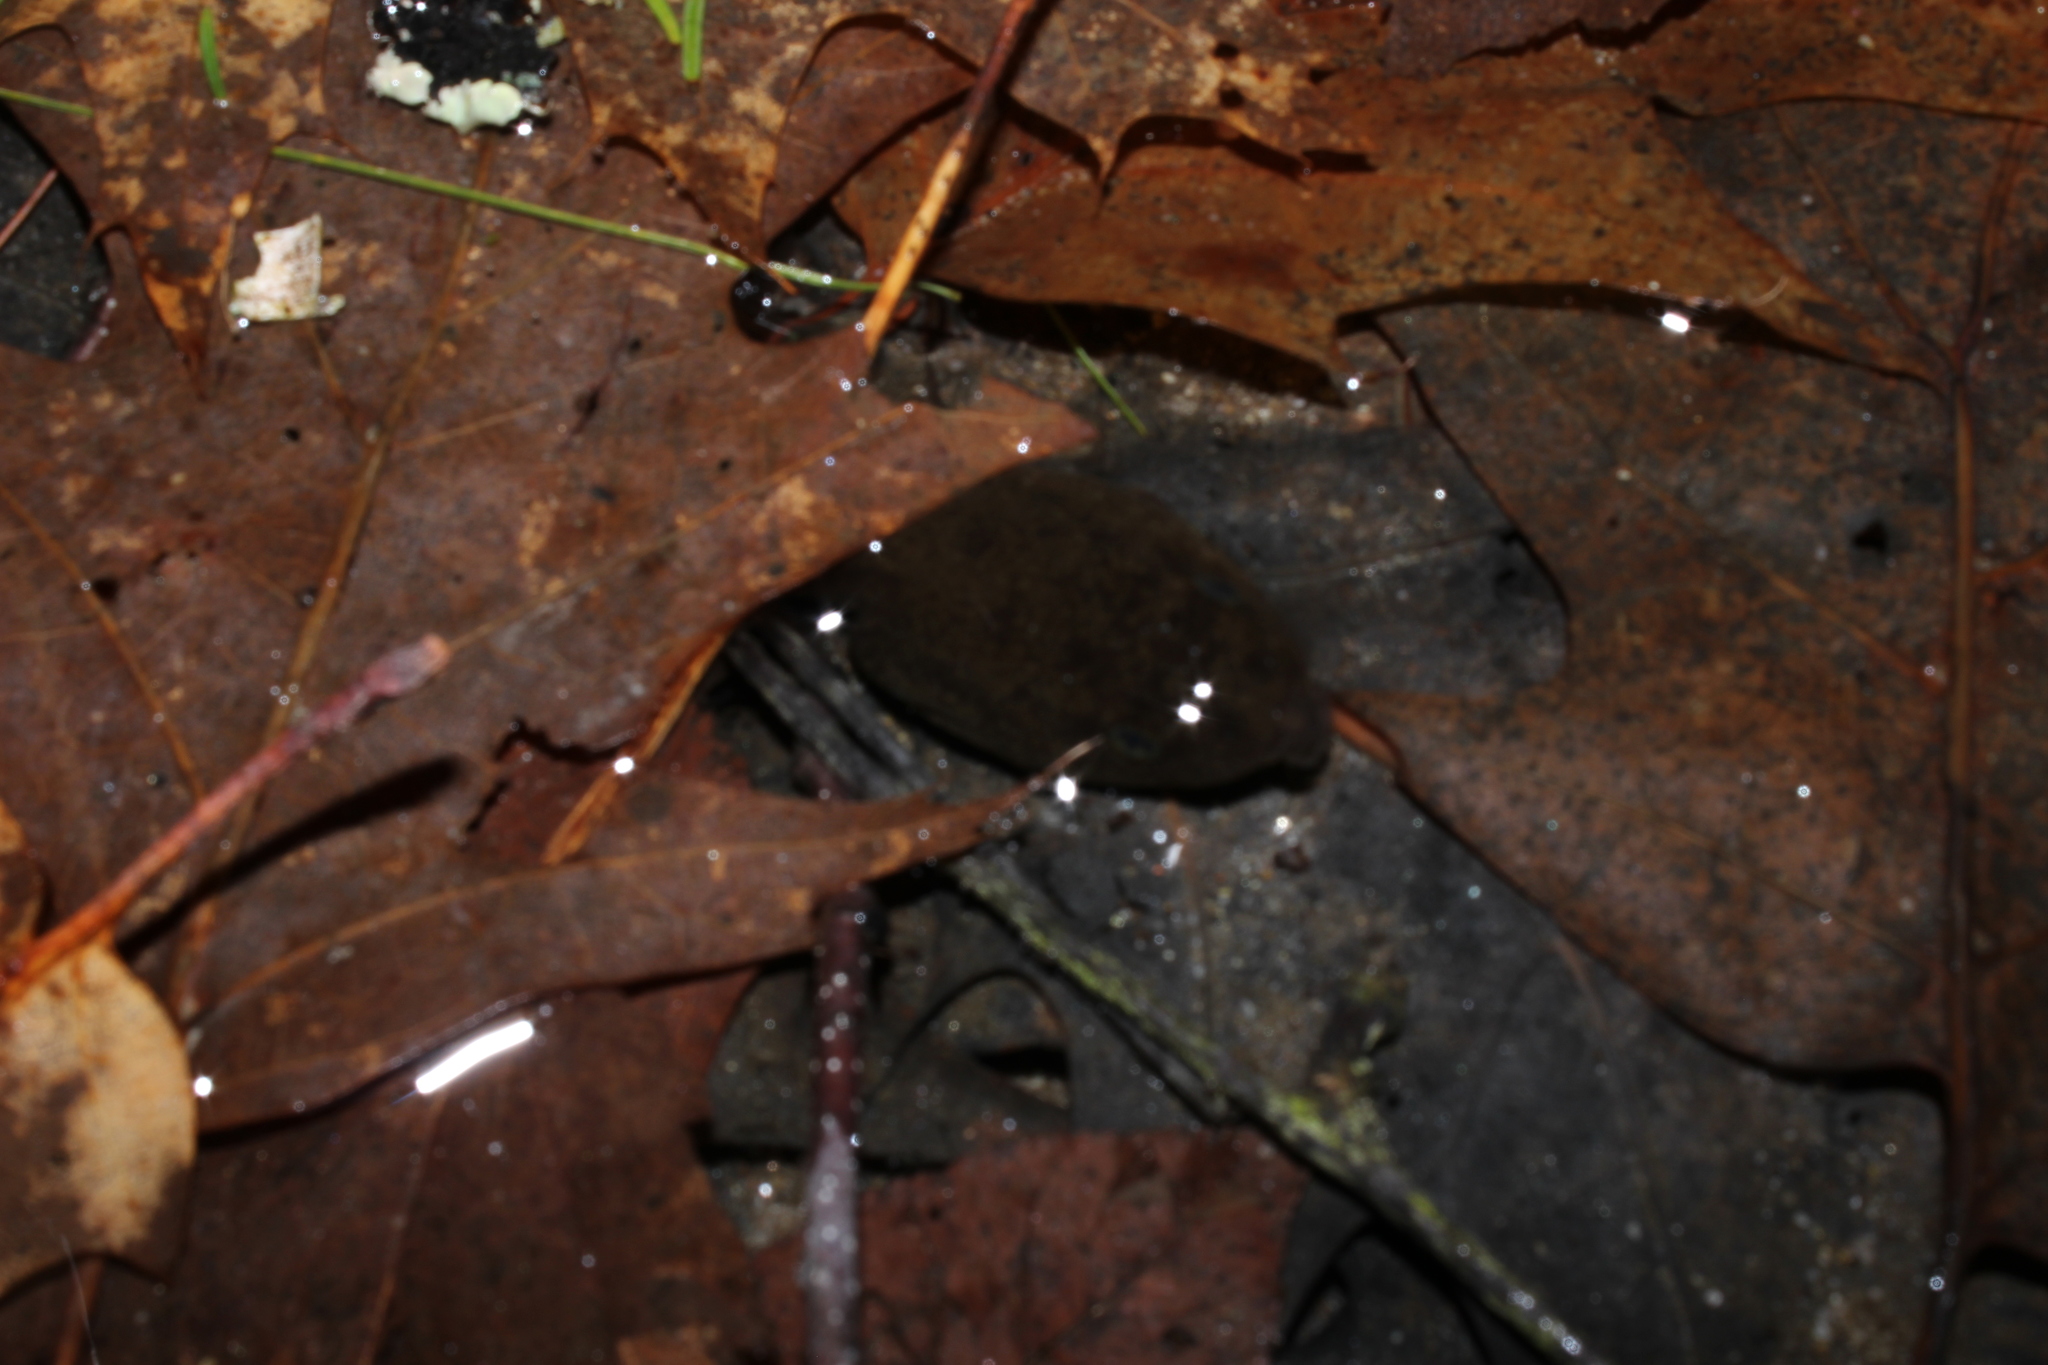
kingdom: Animalia
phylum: Chordata
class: Amphibia
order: Anura
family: Ranidae
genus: Lithobates
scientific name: Lithobates catesbeianus
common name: American bullfrog
